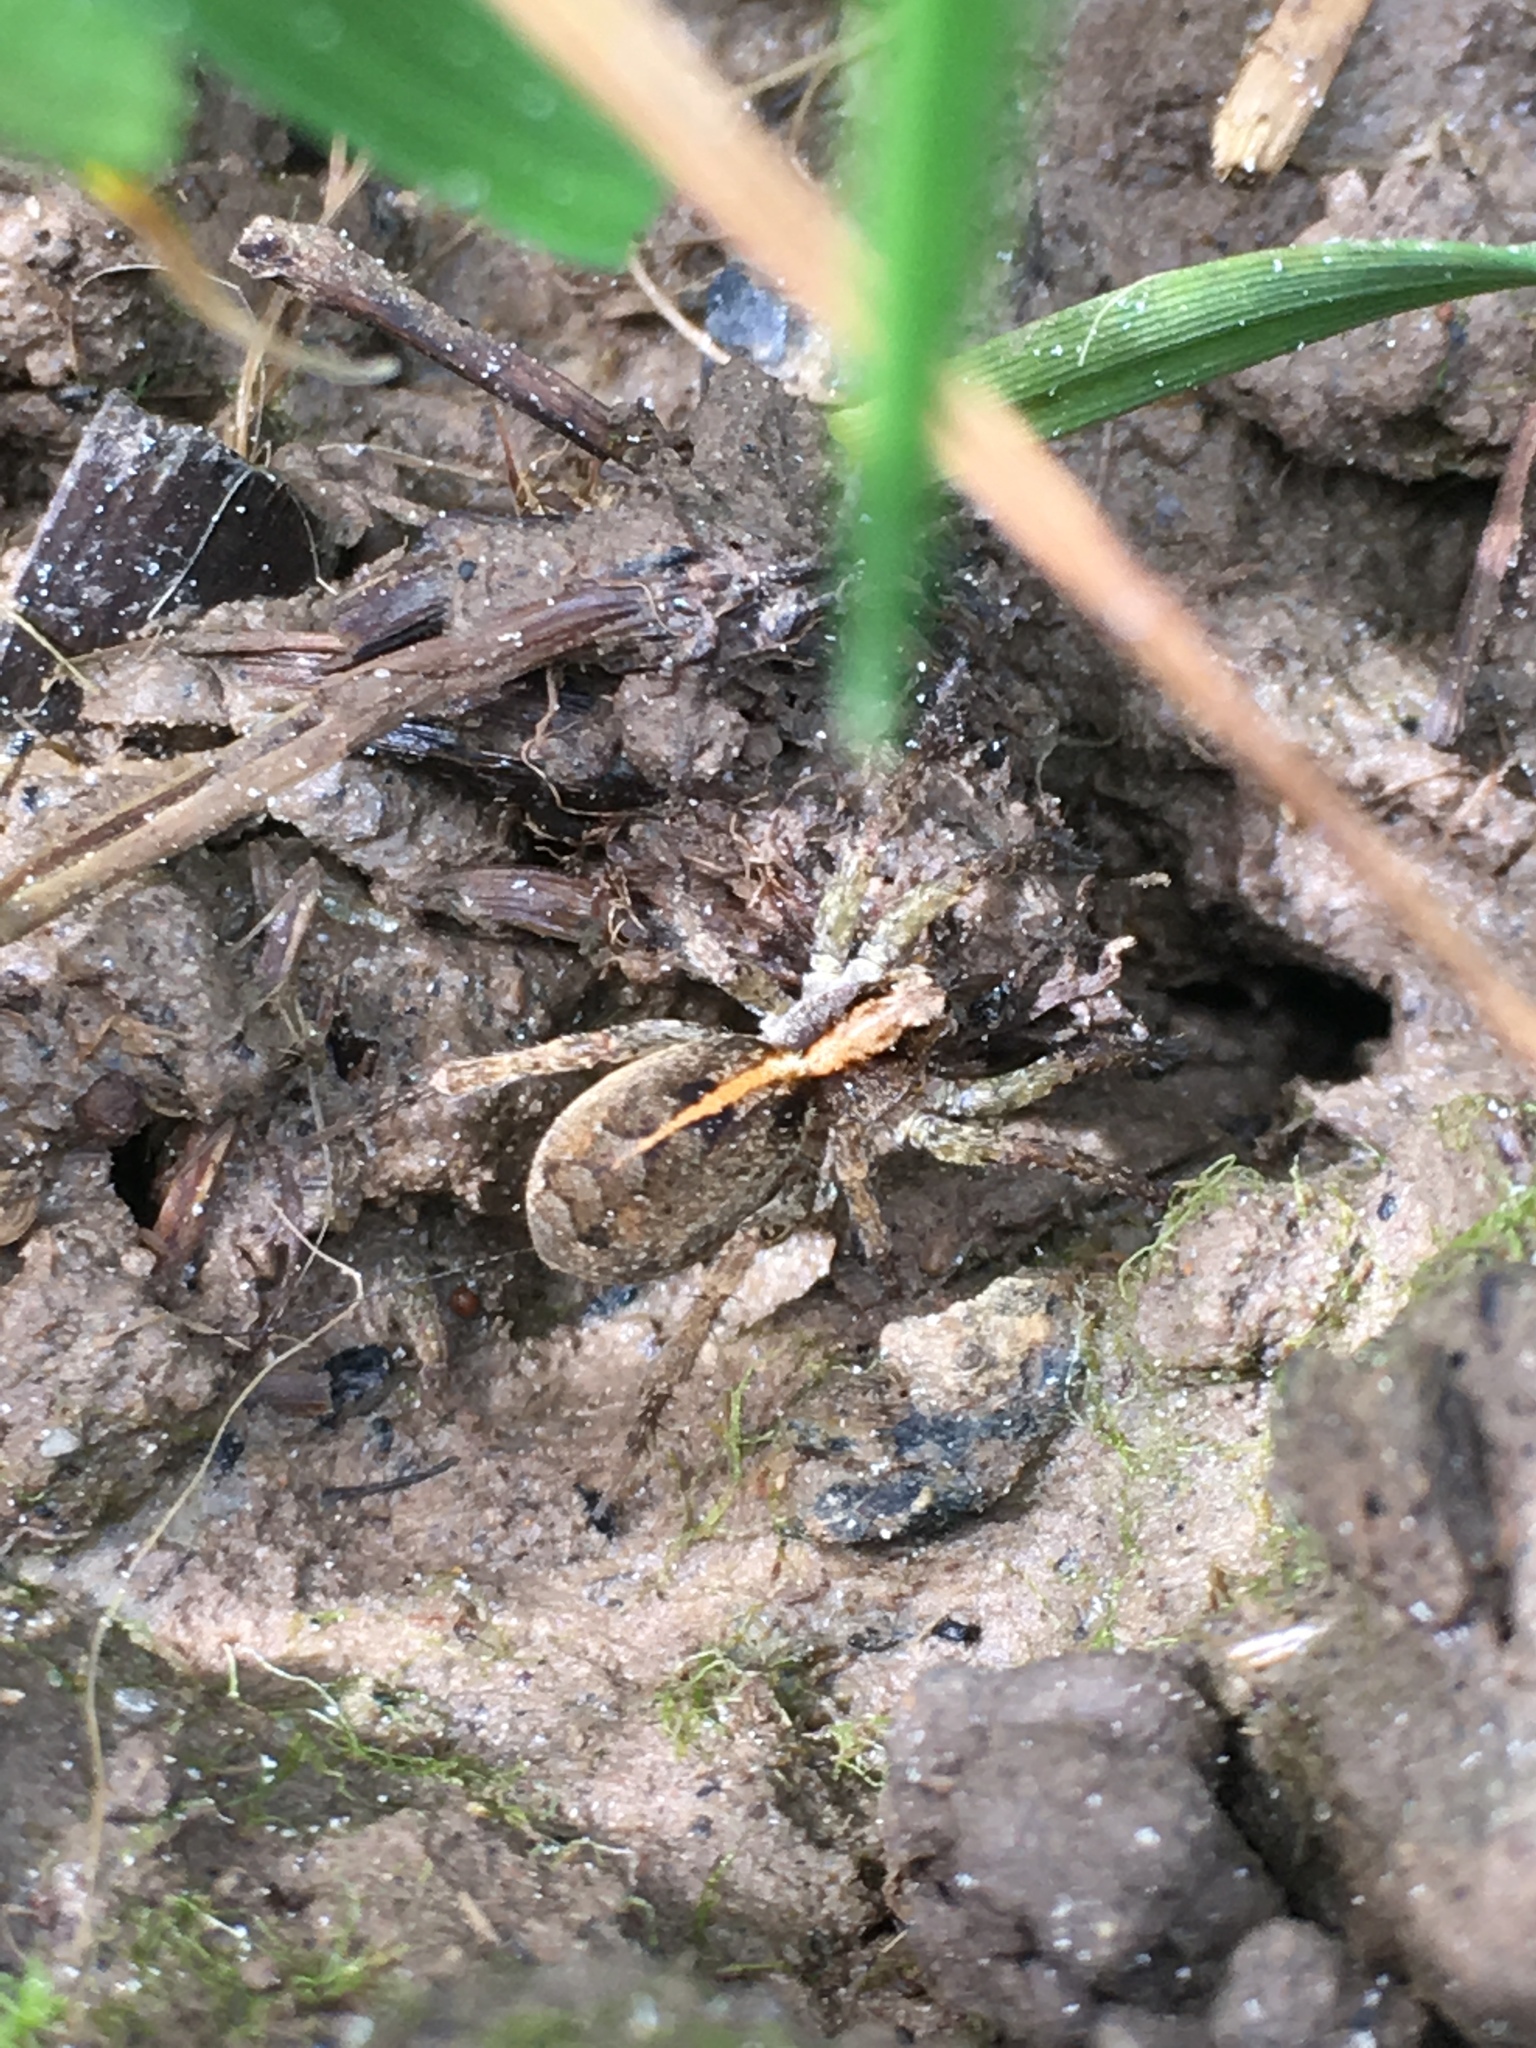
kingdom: Animalia
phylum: Arthropoda
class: Arachnida
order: Araneae
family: Lycosidae
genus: Anoteropsis
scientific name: Anoteropsis hilaris
